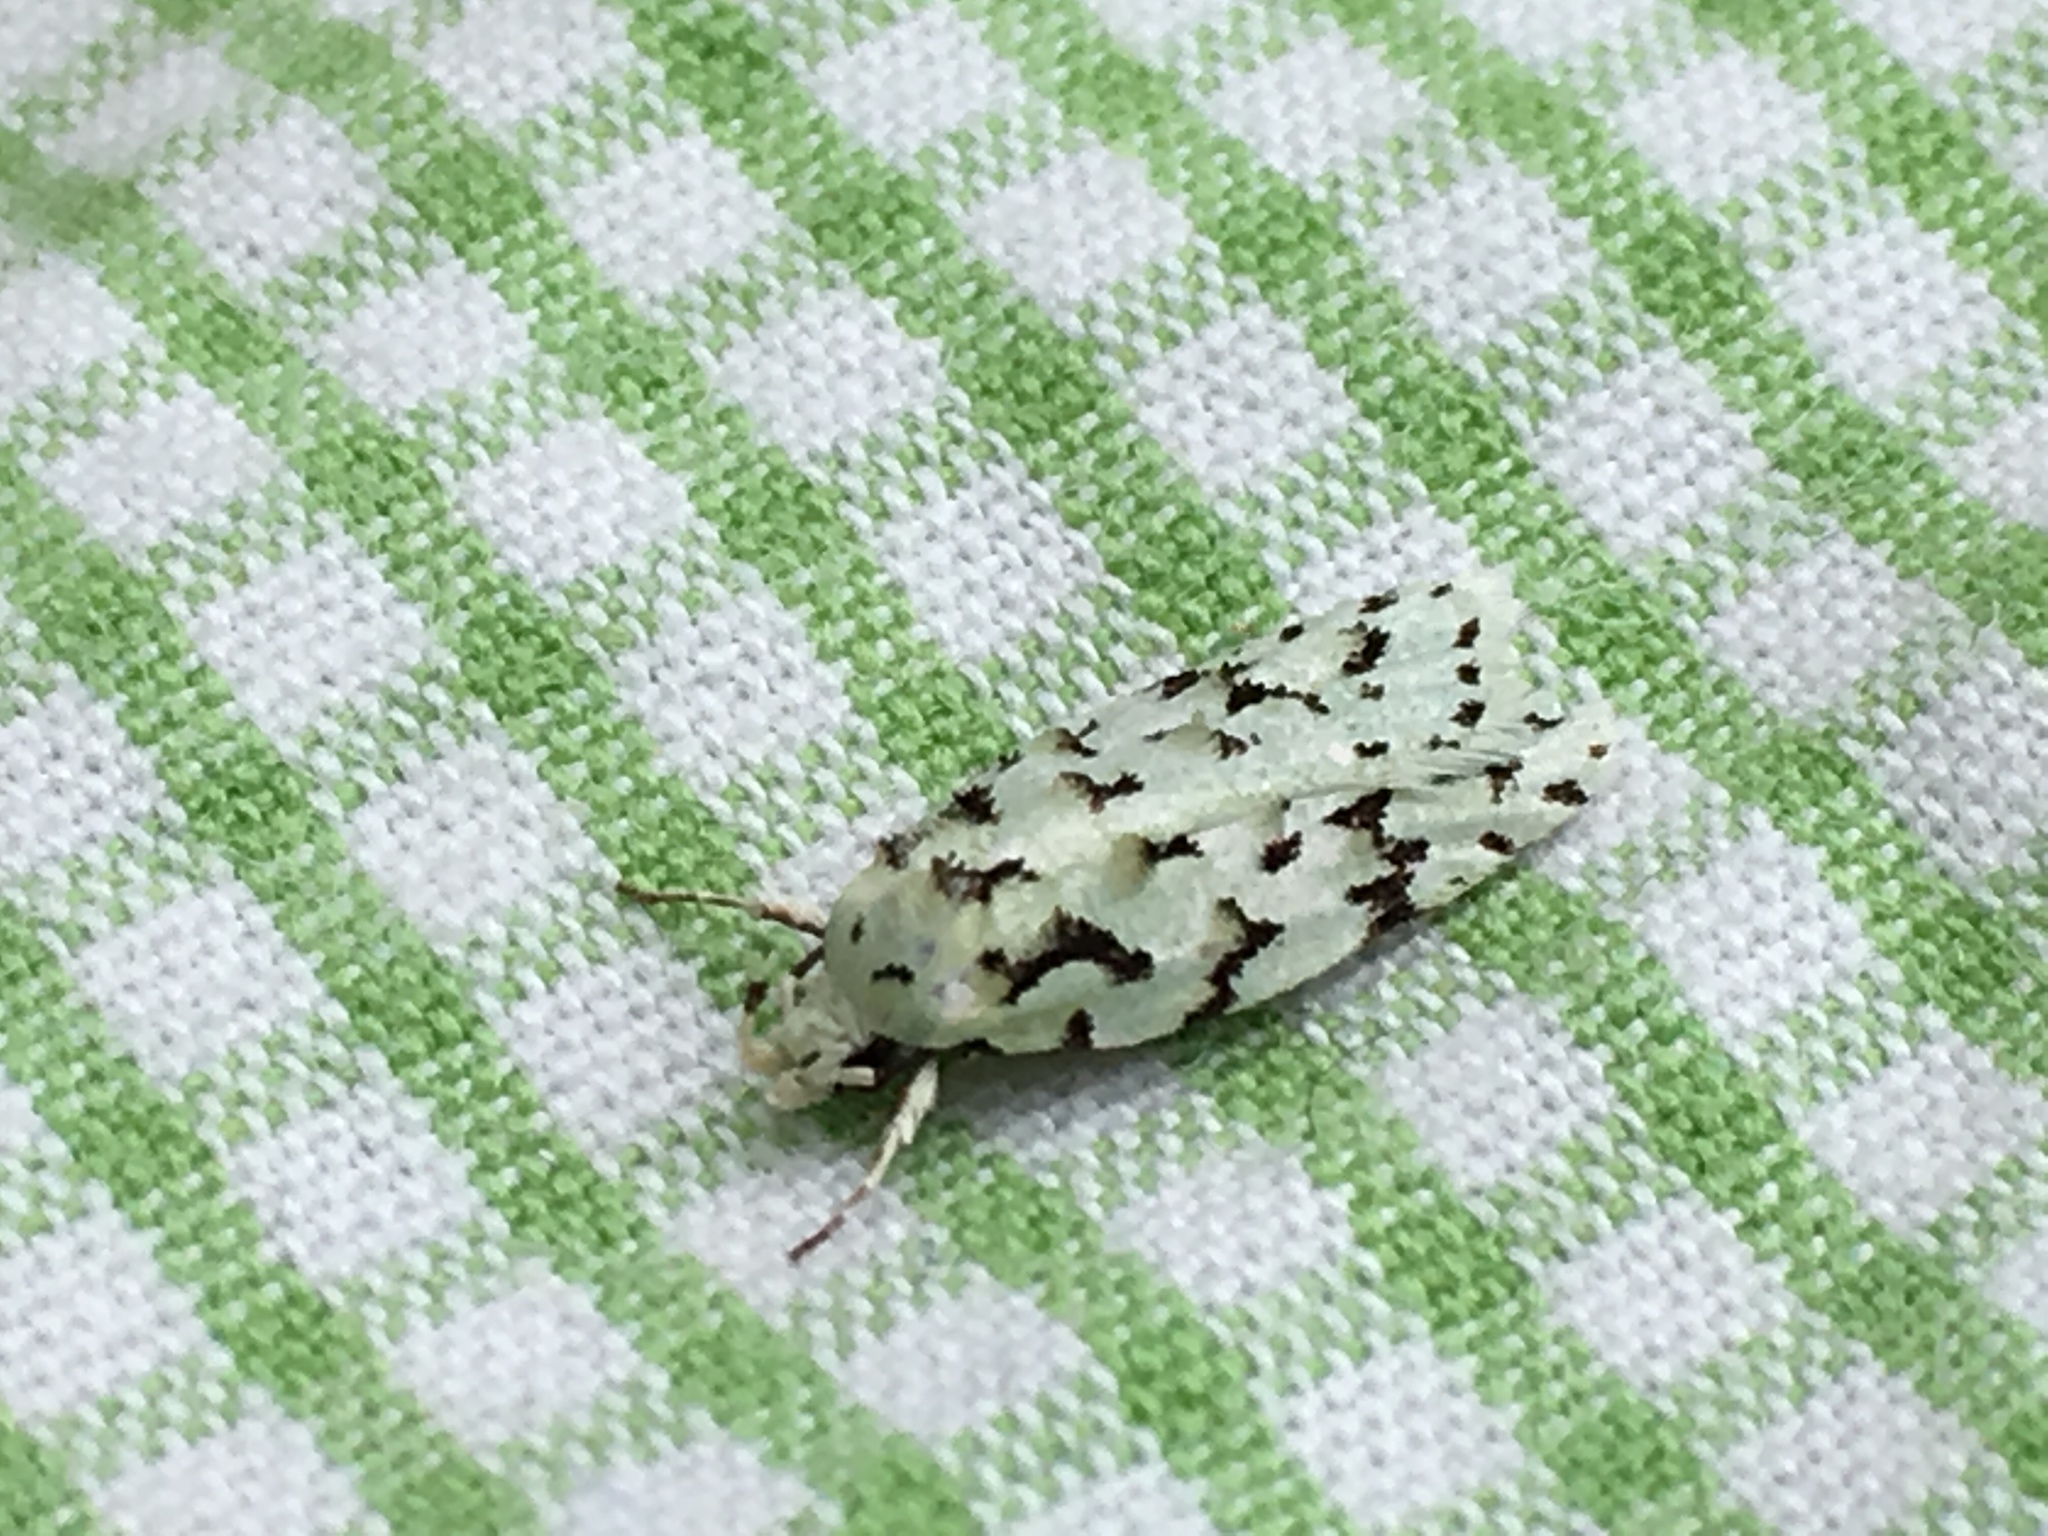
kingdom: Animalia
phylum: Arthropoda
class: Insecta
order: Lepidoptera
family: Oecophoridae
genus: Izatha
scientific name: Izatha peroneanella
